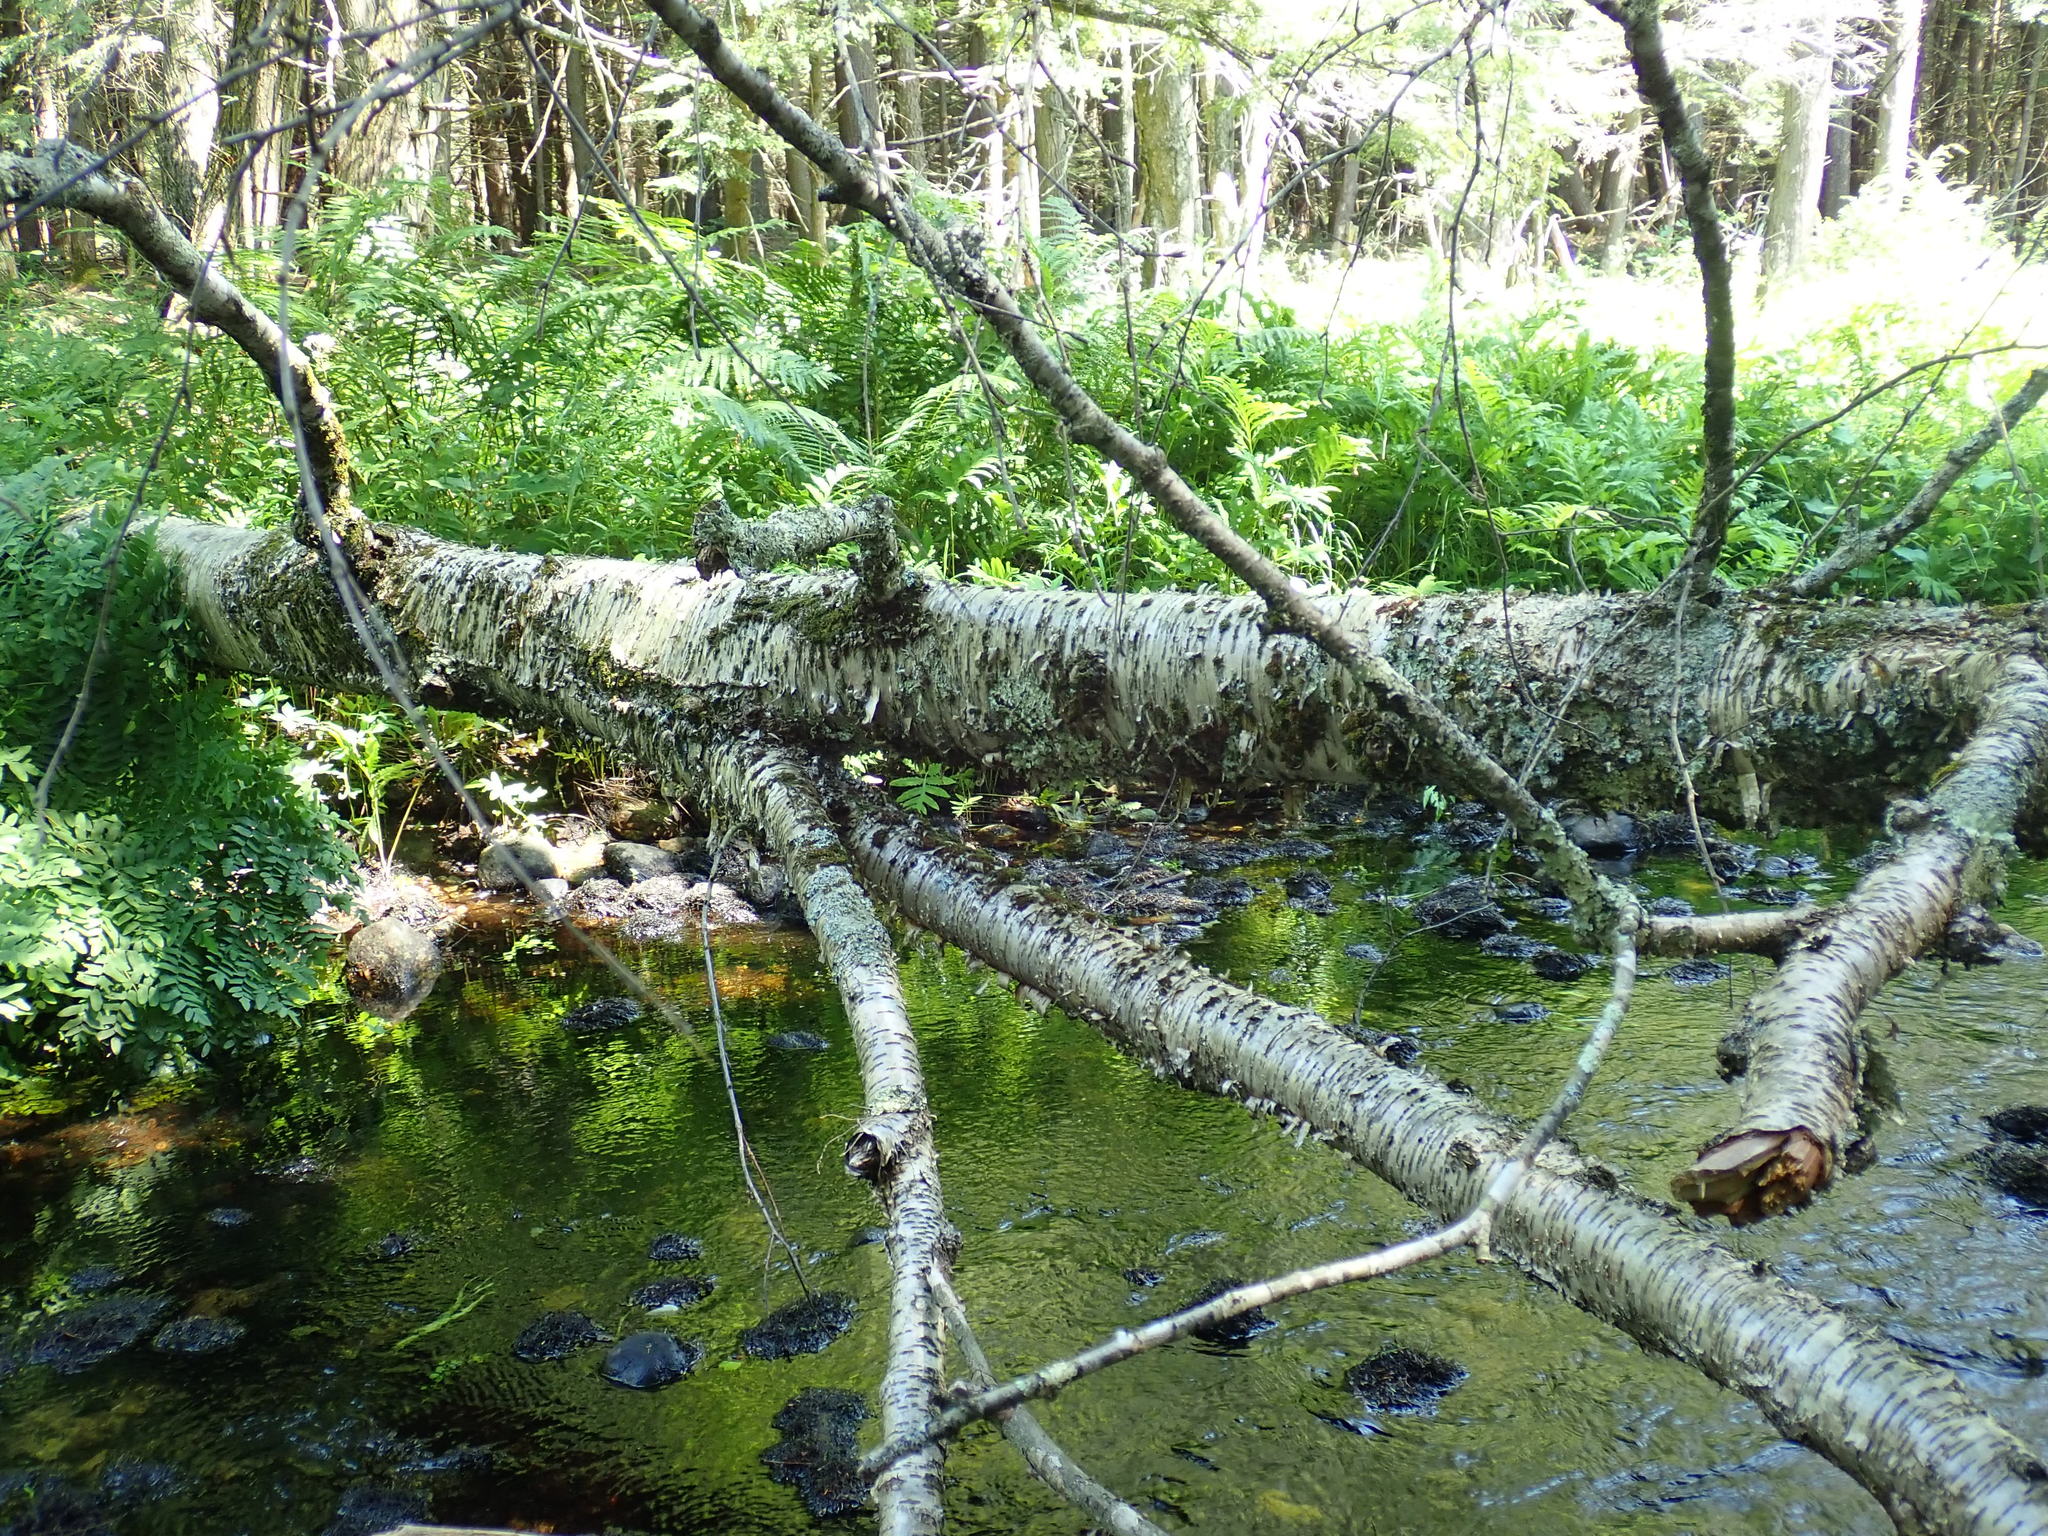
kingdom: Plantae
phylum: Tracheophyta
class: Magnoliopsida
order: Fagales
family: Betulaceae
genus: Betula
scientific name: Betula alleghaniensis
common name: Yellow birch
